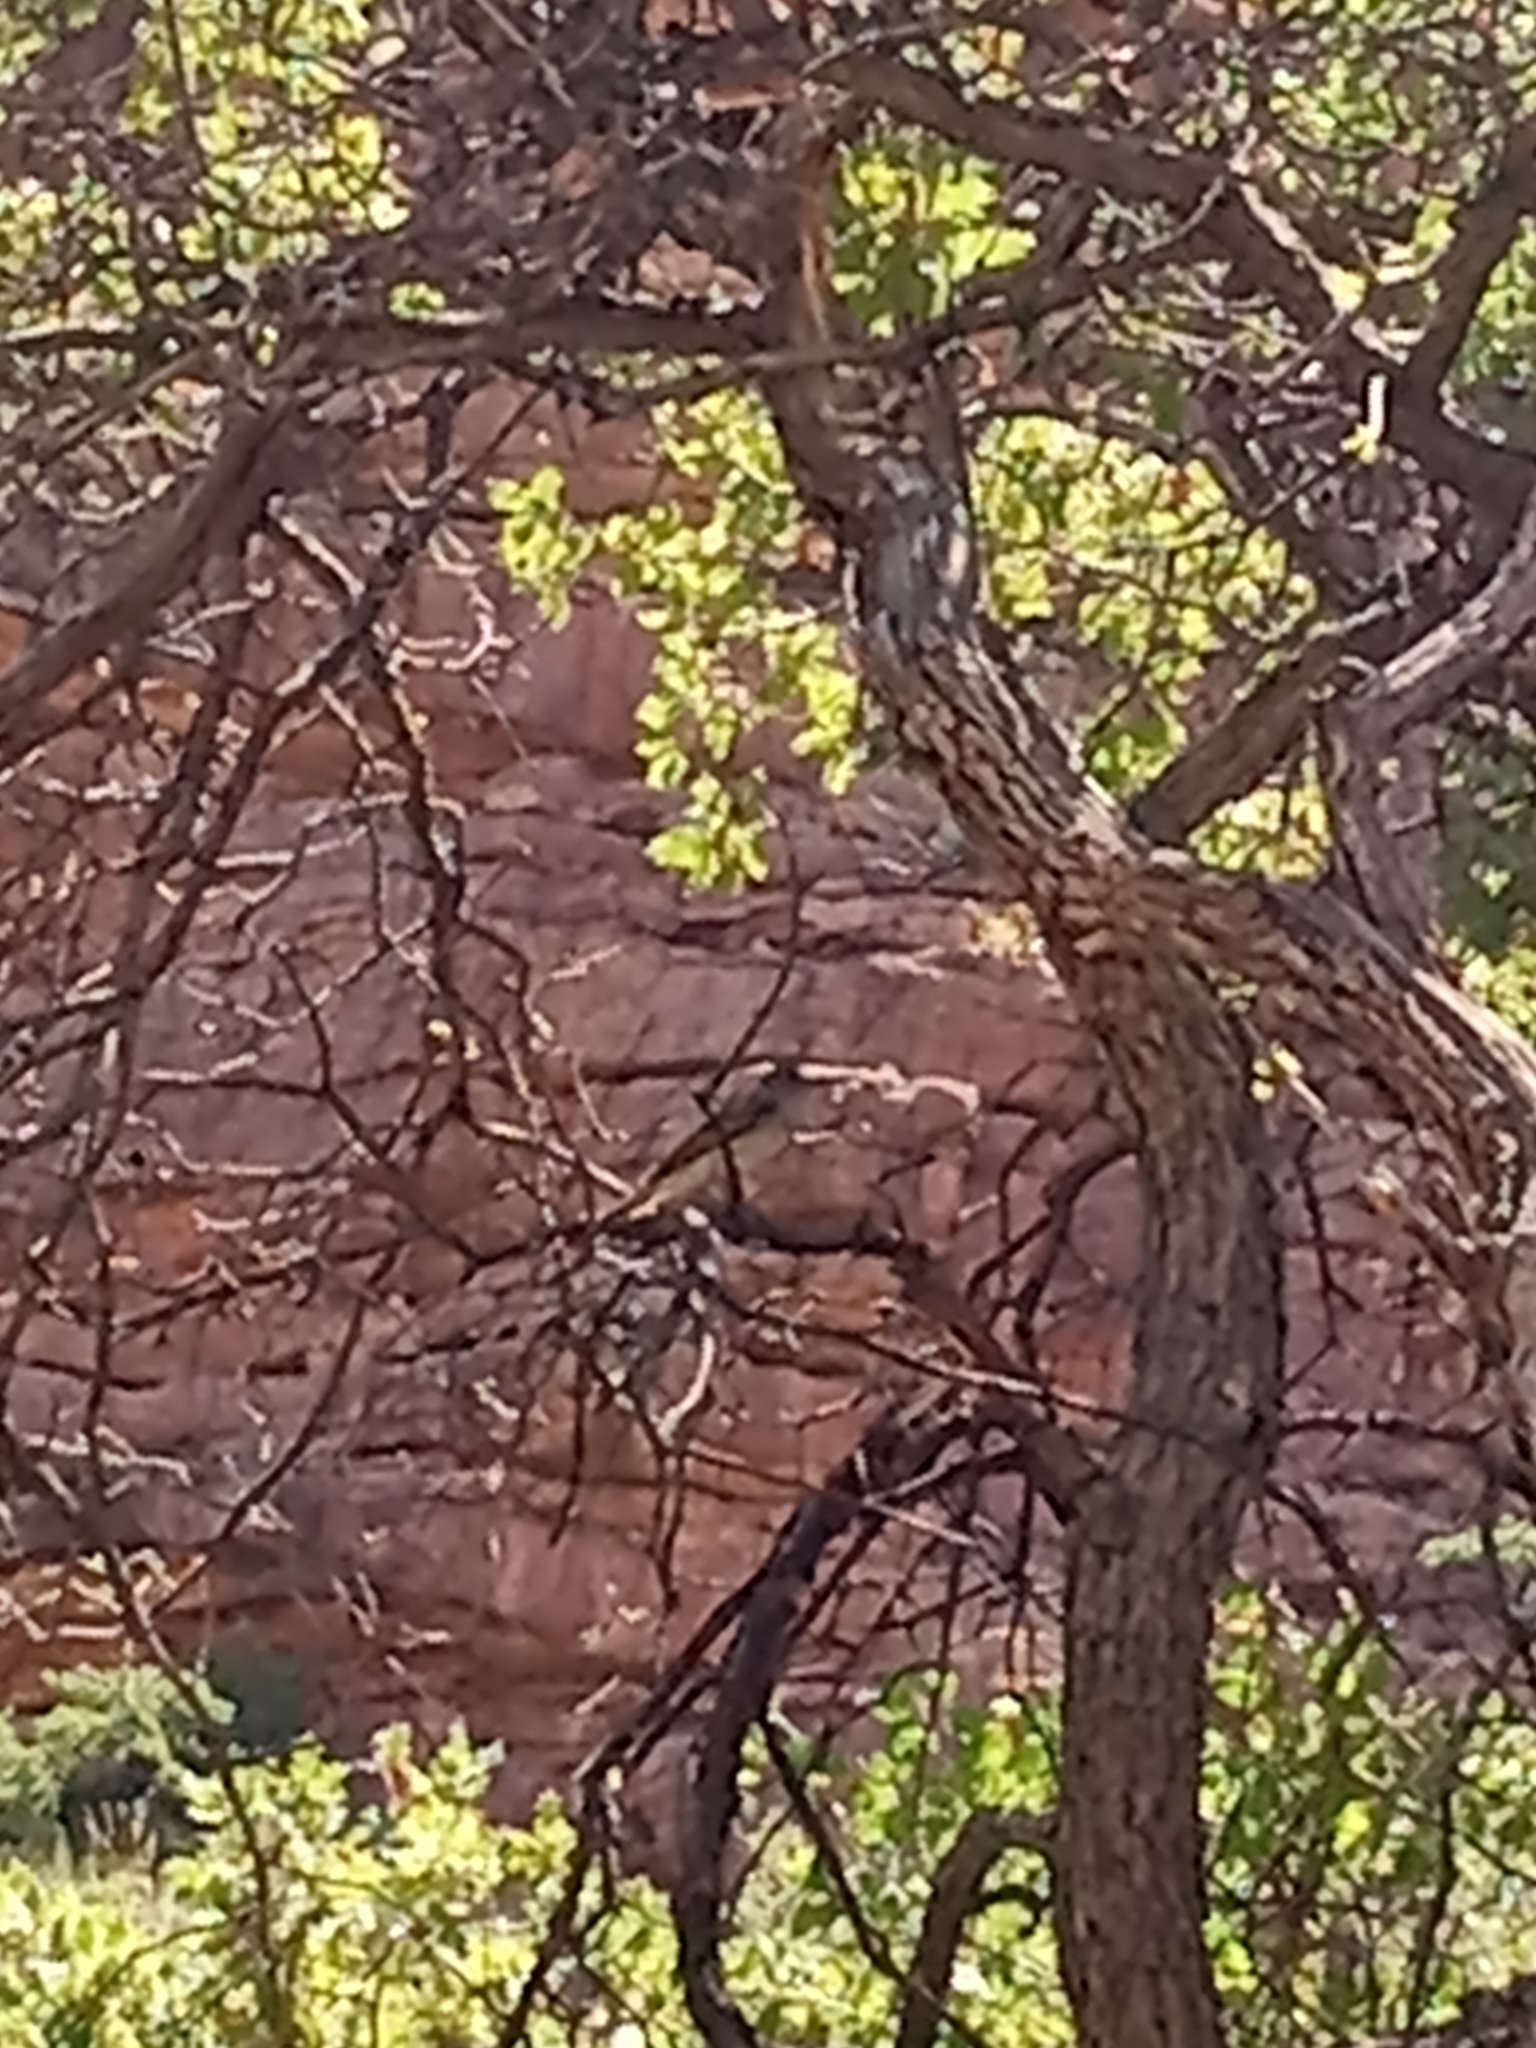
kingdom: Animalia
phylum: Chordata
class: Aves
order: Passeriformes
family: Tyrannidae
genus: Myiarchus
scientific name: Myiarchus cinerascens
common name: Ash-throated flycatcher
